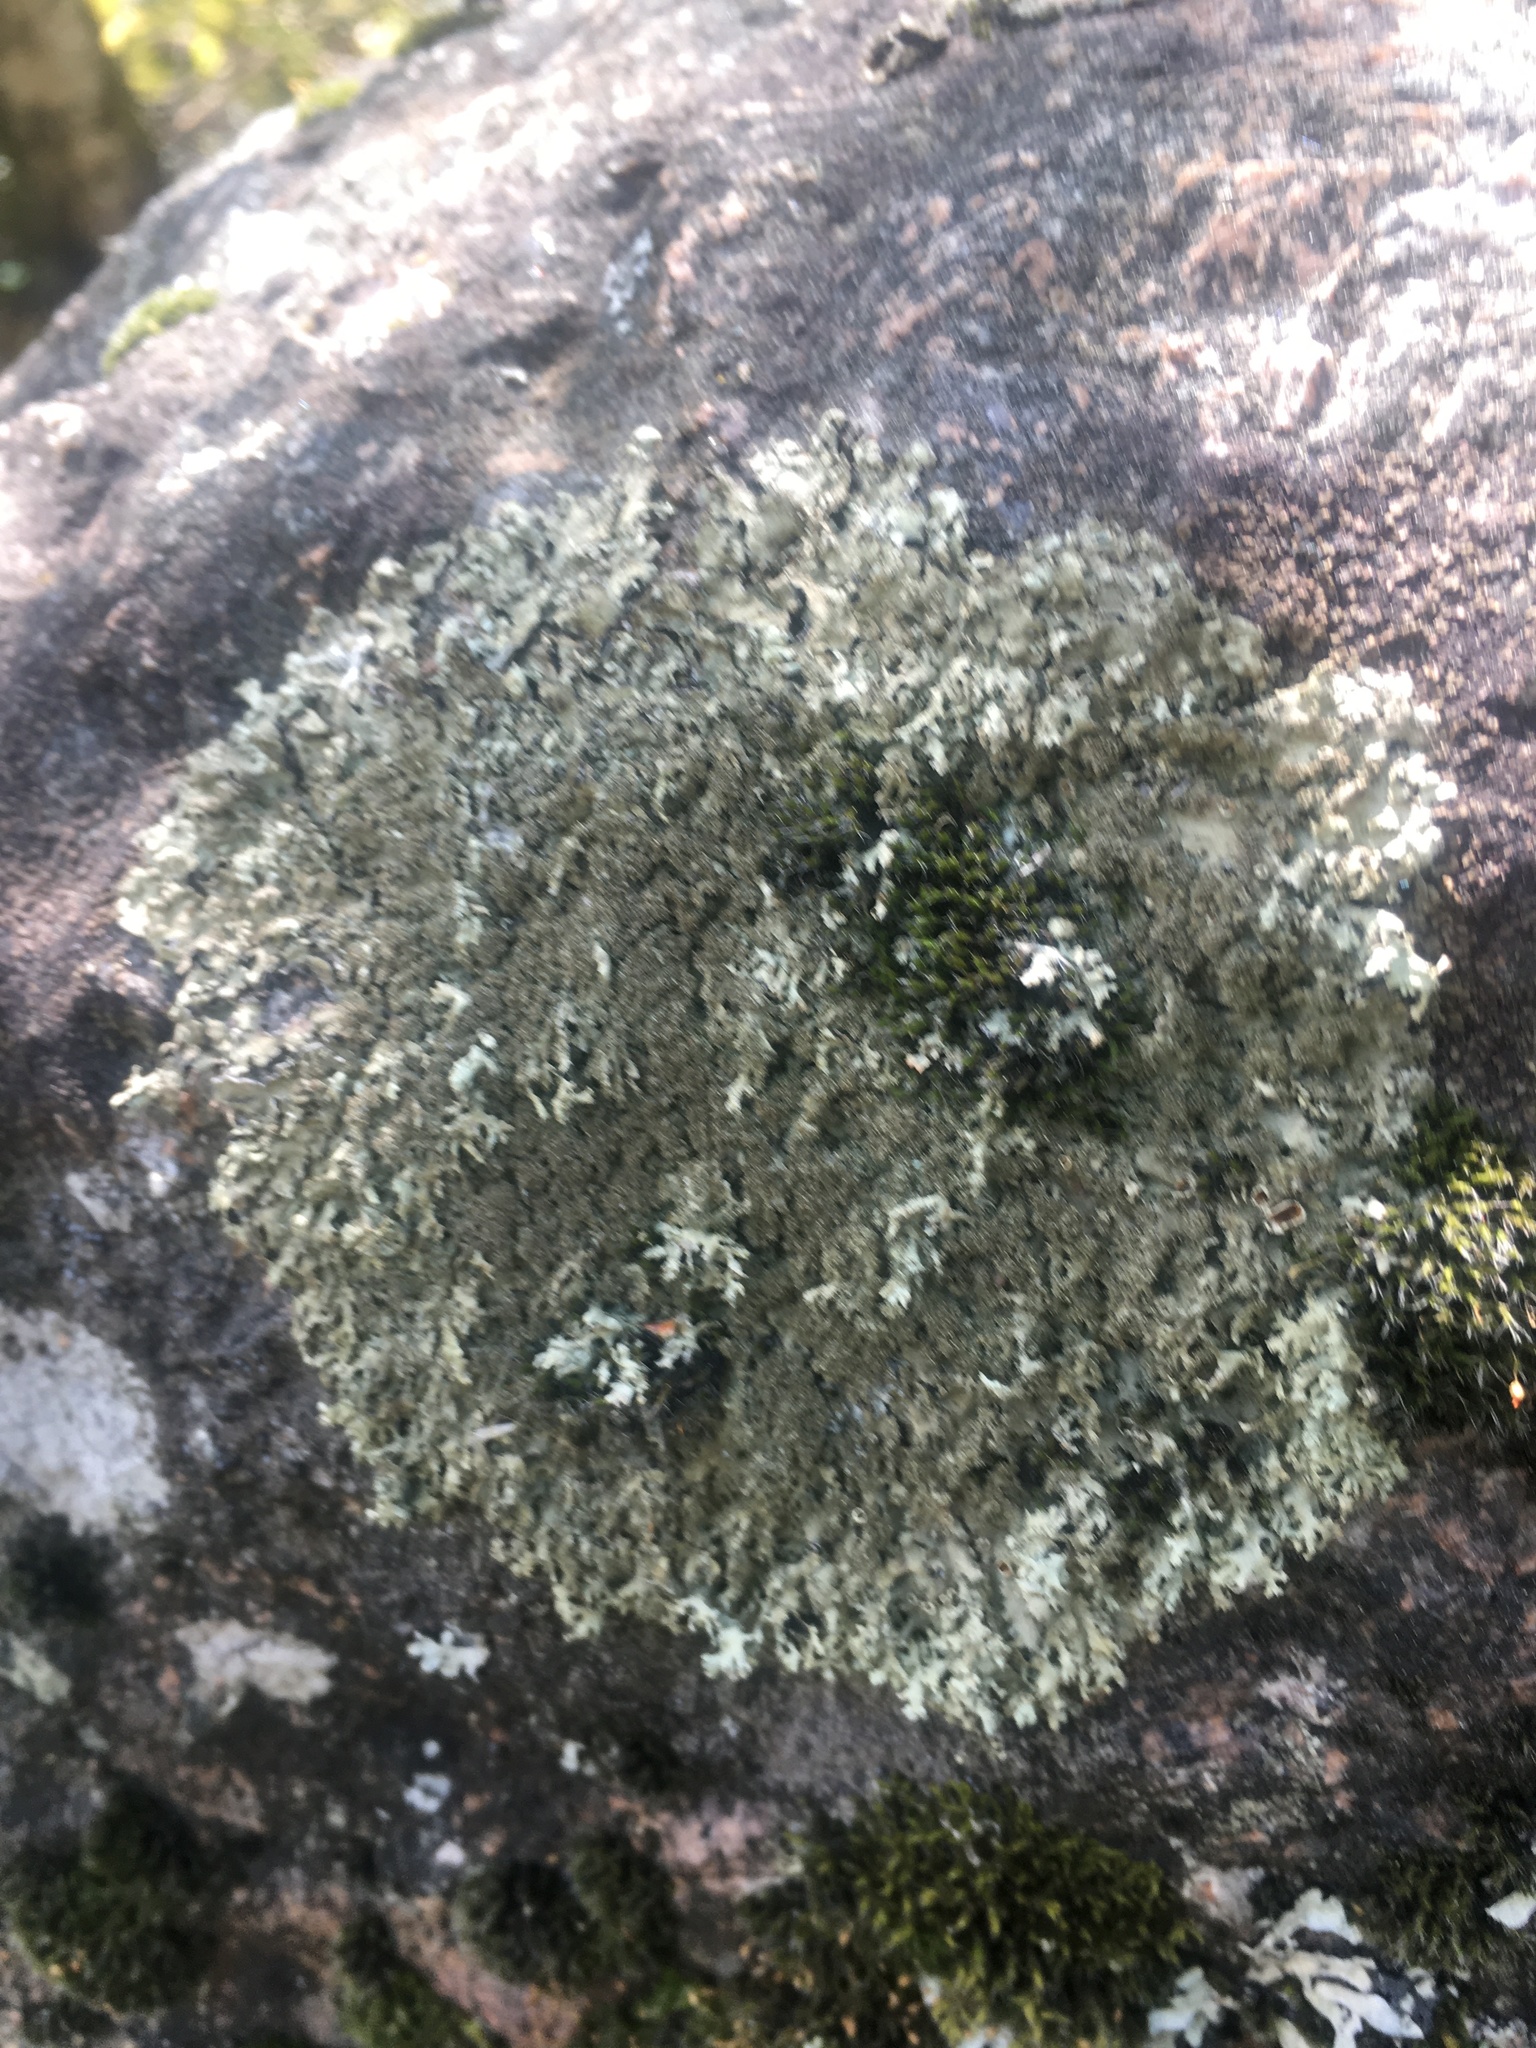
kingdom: Fungi
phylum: Ascomycota
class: Lecanoromycetes
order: Lecanorales
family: Parmeliaceae
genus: Xanthoparmelia
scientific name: Xanthoparmelia conspersa
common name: Peppered rock shield
